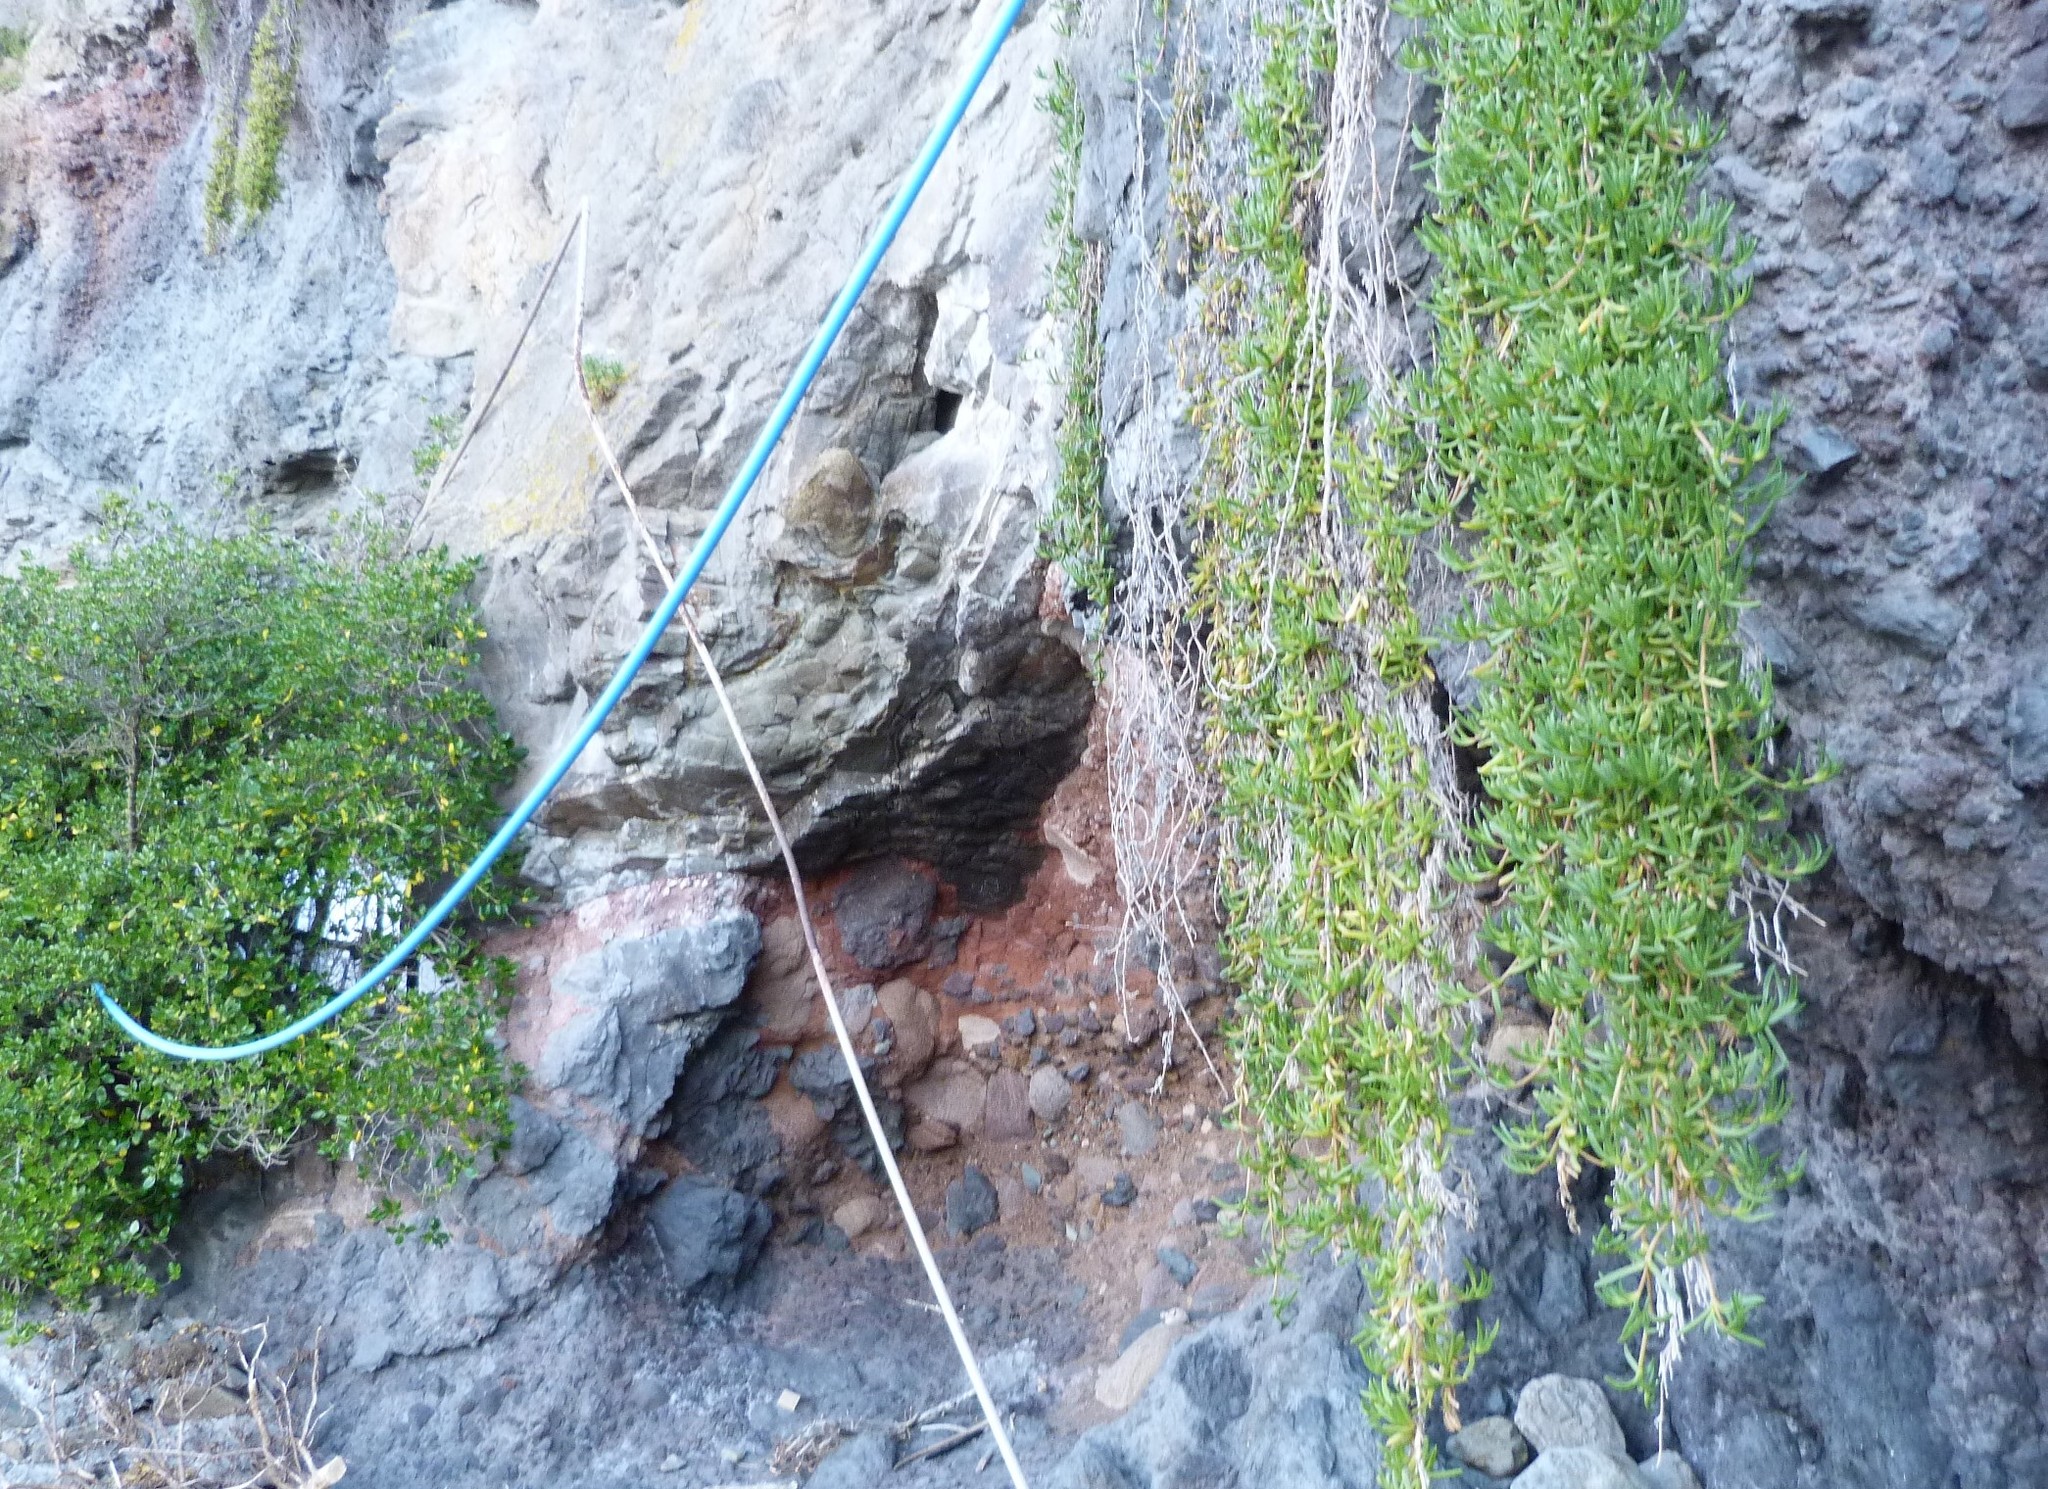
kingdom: Plantae
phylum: Tracheophyta
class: Magnoliopsida
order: Caryophyllales
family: Aizoaceae
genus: Disphyma
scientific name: Disphyma australe
